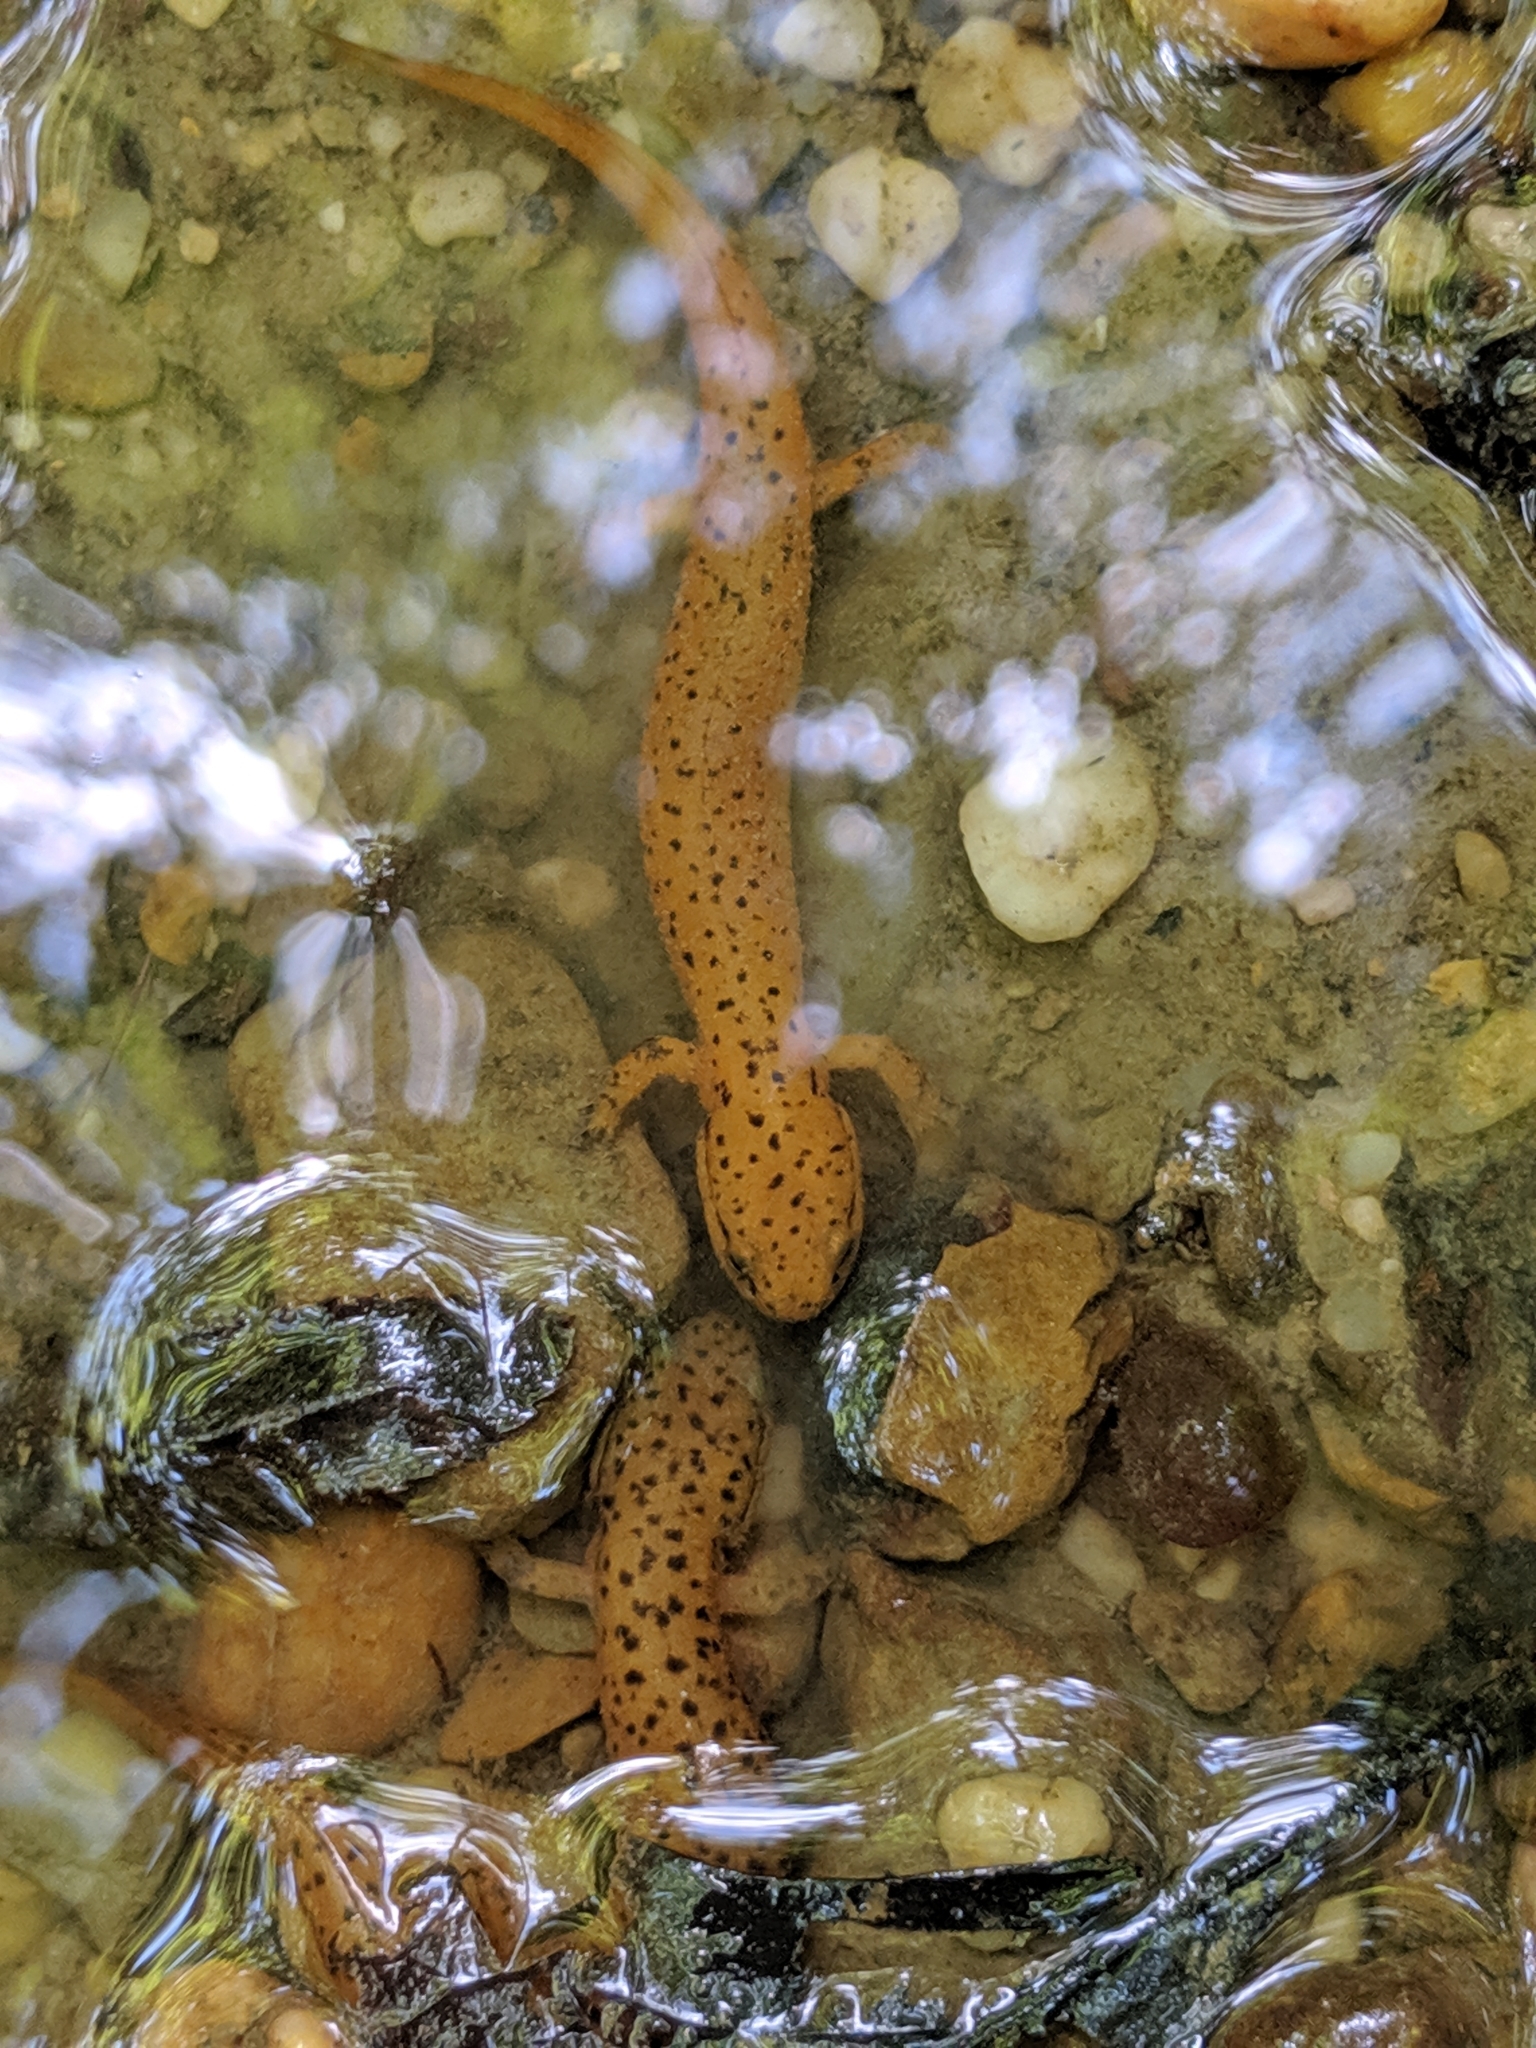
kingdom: Animalia
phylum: Chordata
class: Amphibia
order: Caudata
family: Plethodontidae
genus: Pseudotriton
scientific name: Pseudotriton ruber
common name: Red salamander
